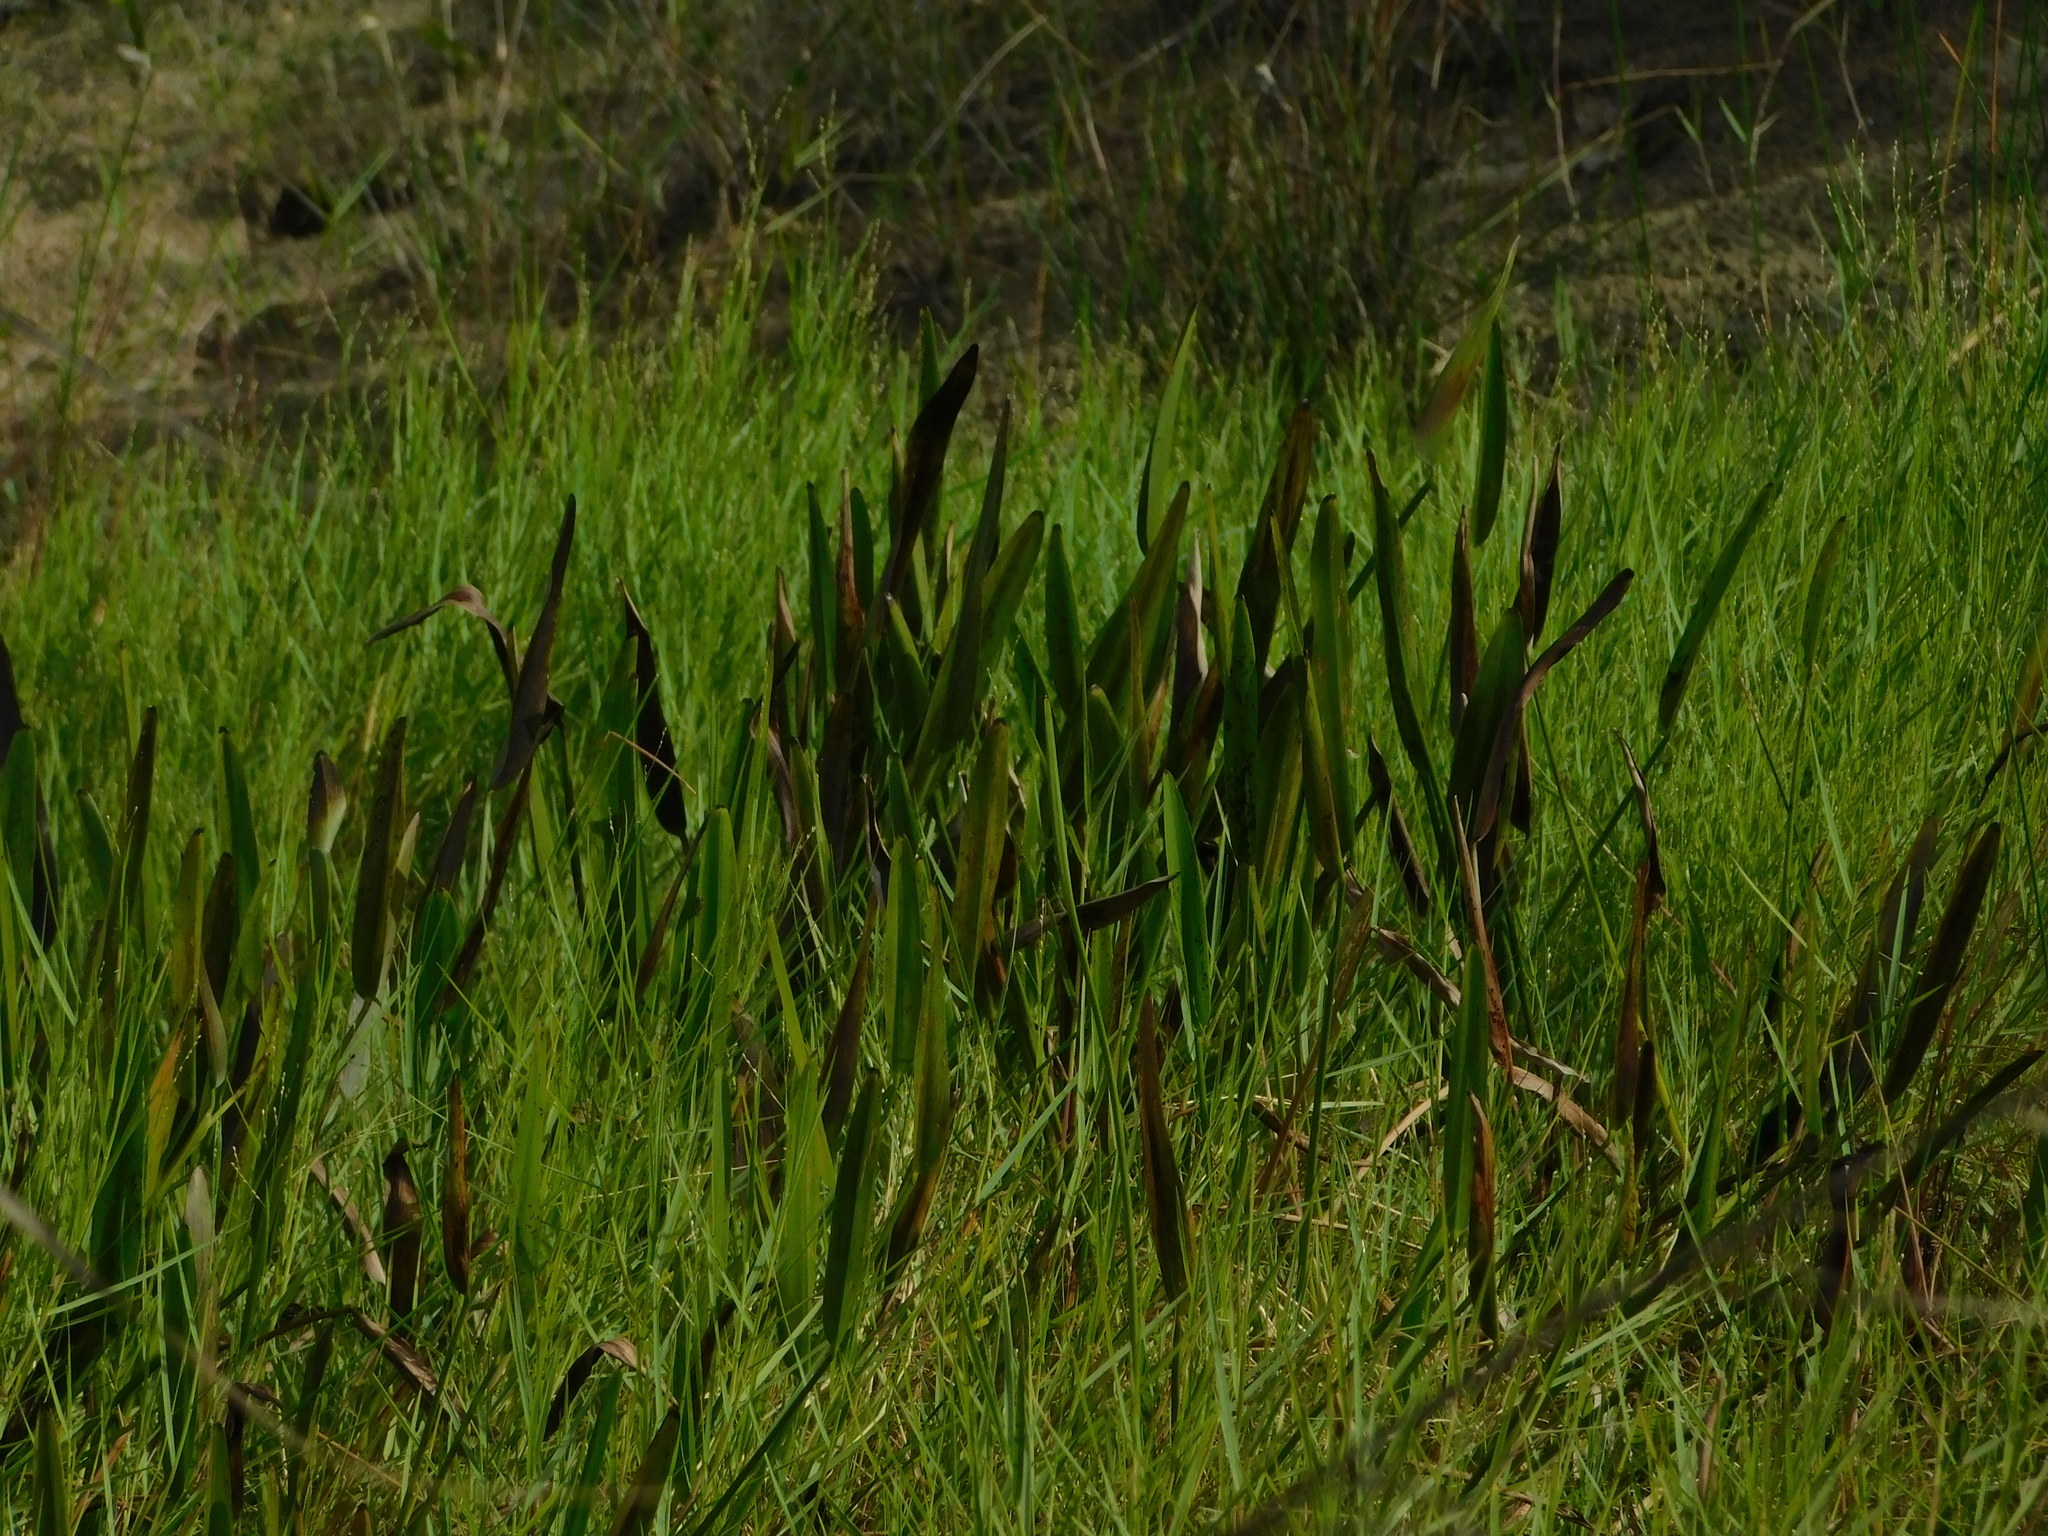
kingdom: Plantae
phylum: Tracheophyta
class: Liliopsida
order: Commelinales
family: Pontederiaceae
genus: Pontederia
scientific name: Pontederia cordata
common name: Pickerelweed
